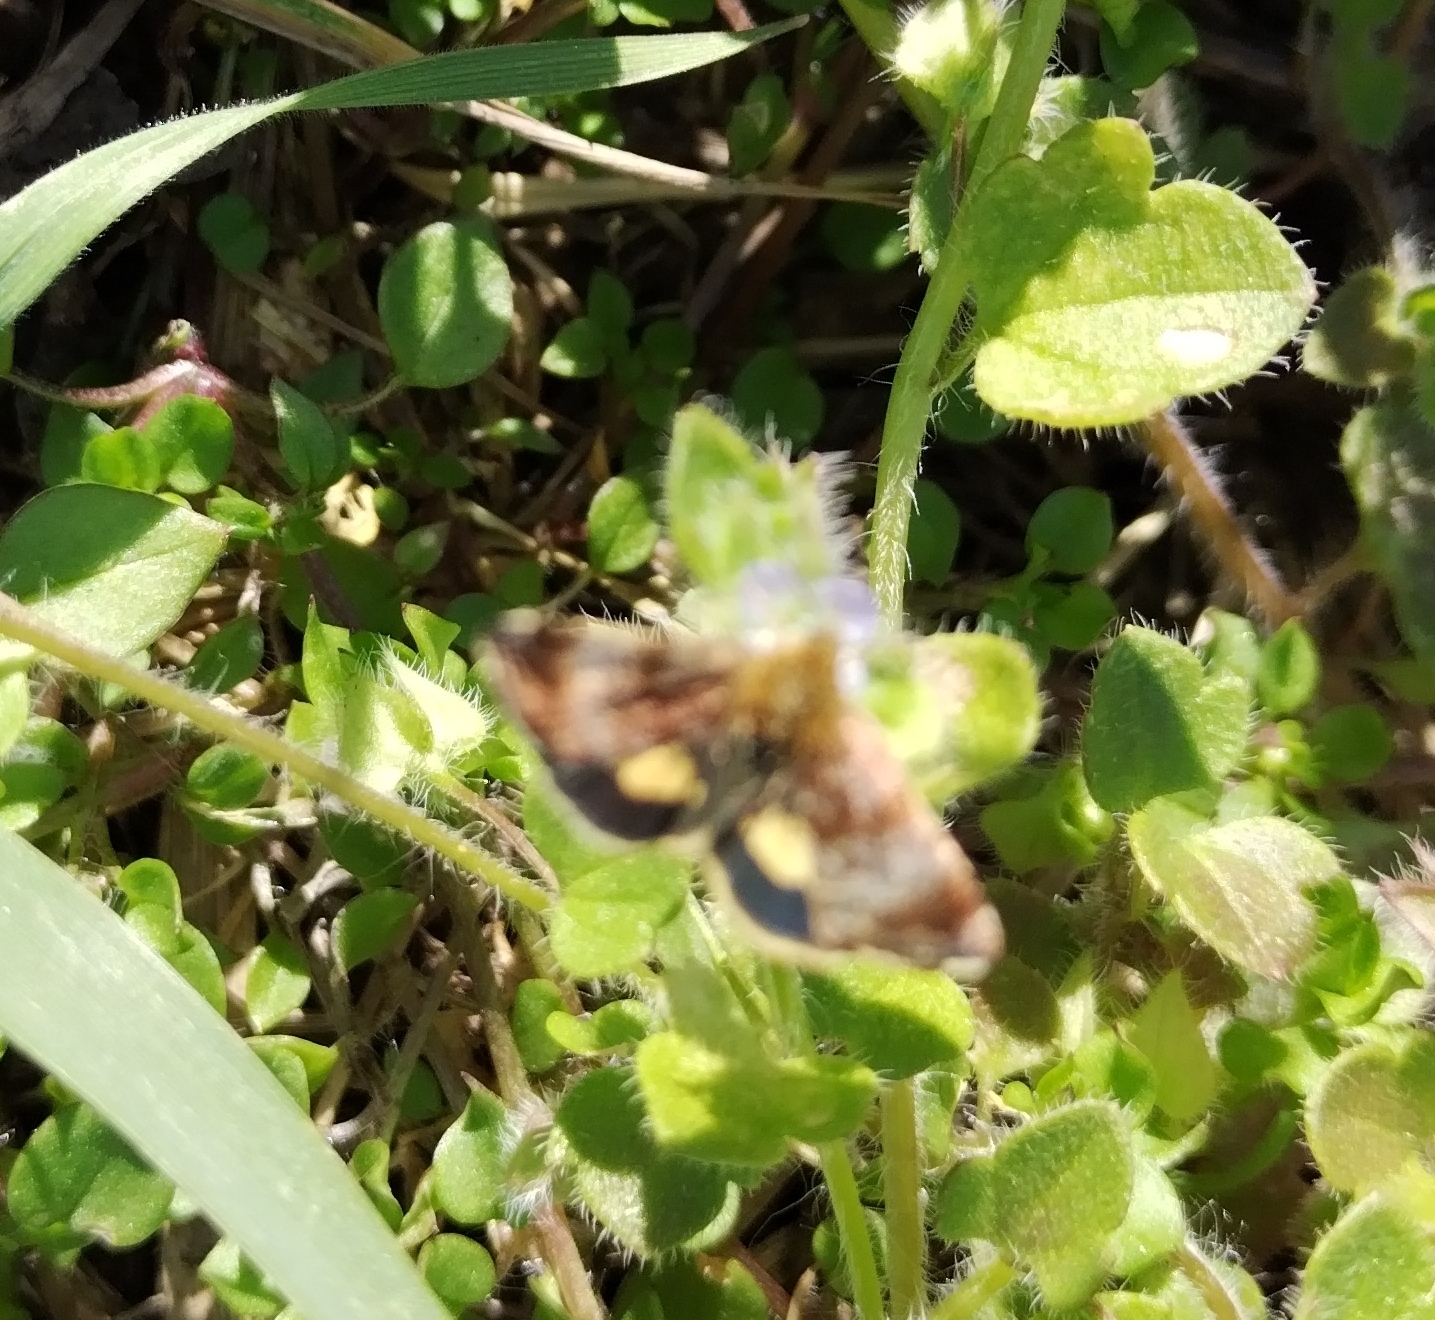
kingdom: Animalia
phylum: Arthropoda
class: Insecta
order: Lepidoptera
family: Noctuidae
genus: Panemeria
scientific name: Panemeria tenebrata
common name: Small yellow underwing
